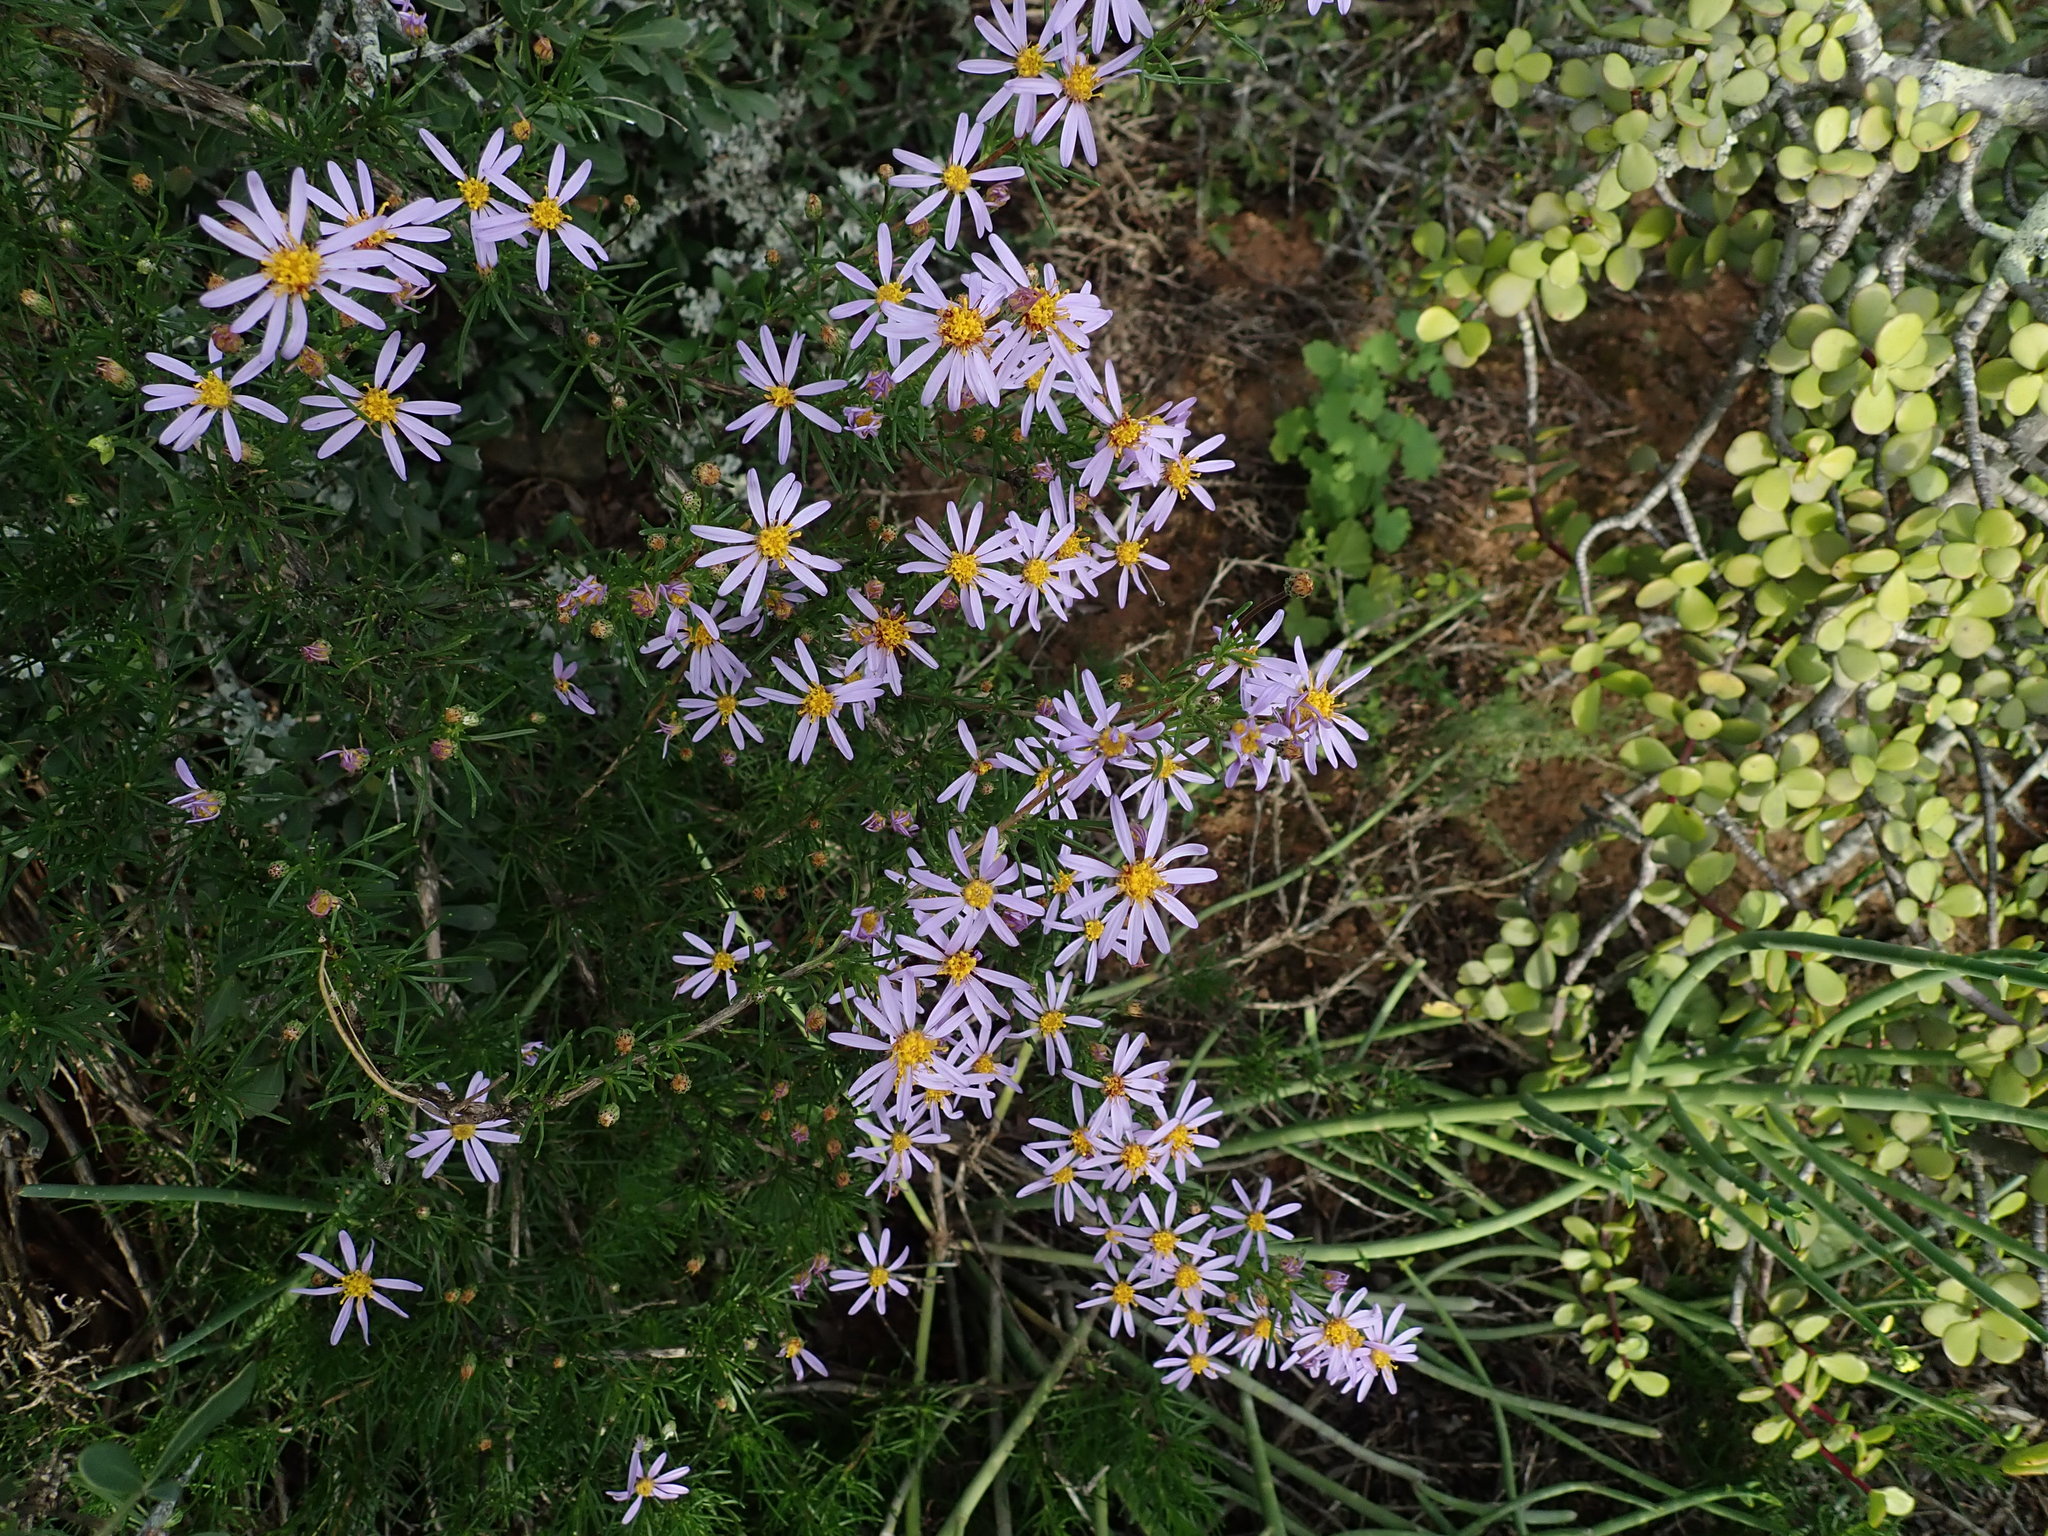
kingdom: Plantae
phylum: Tracheophyta
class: Magnoliopsida
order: Asterales
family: Asteraceae
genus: Felicia
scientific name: Felicia muricata
